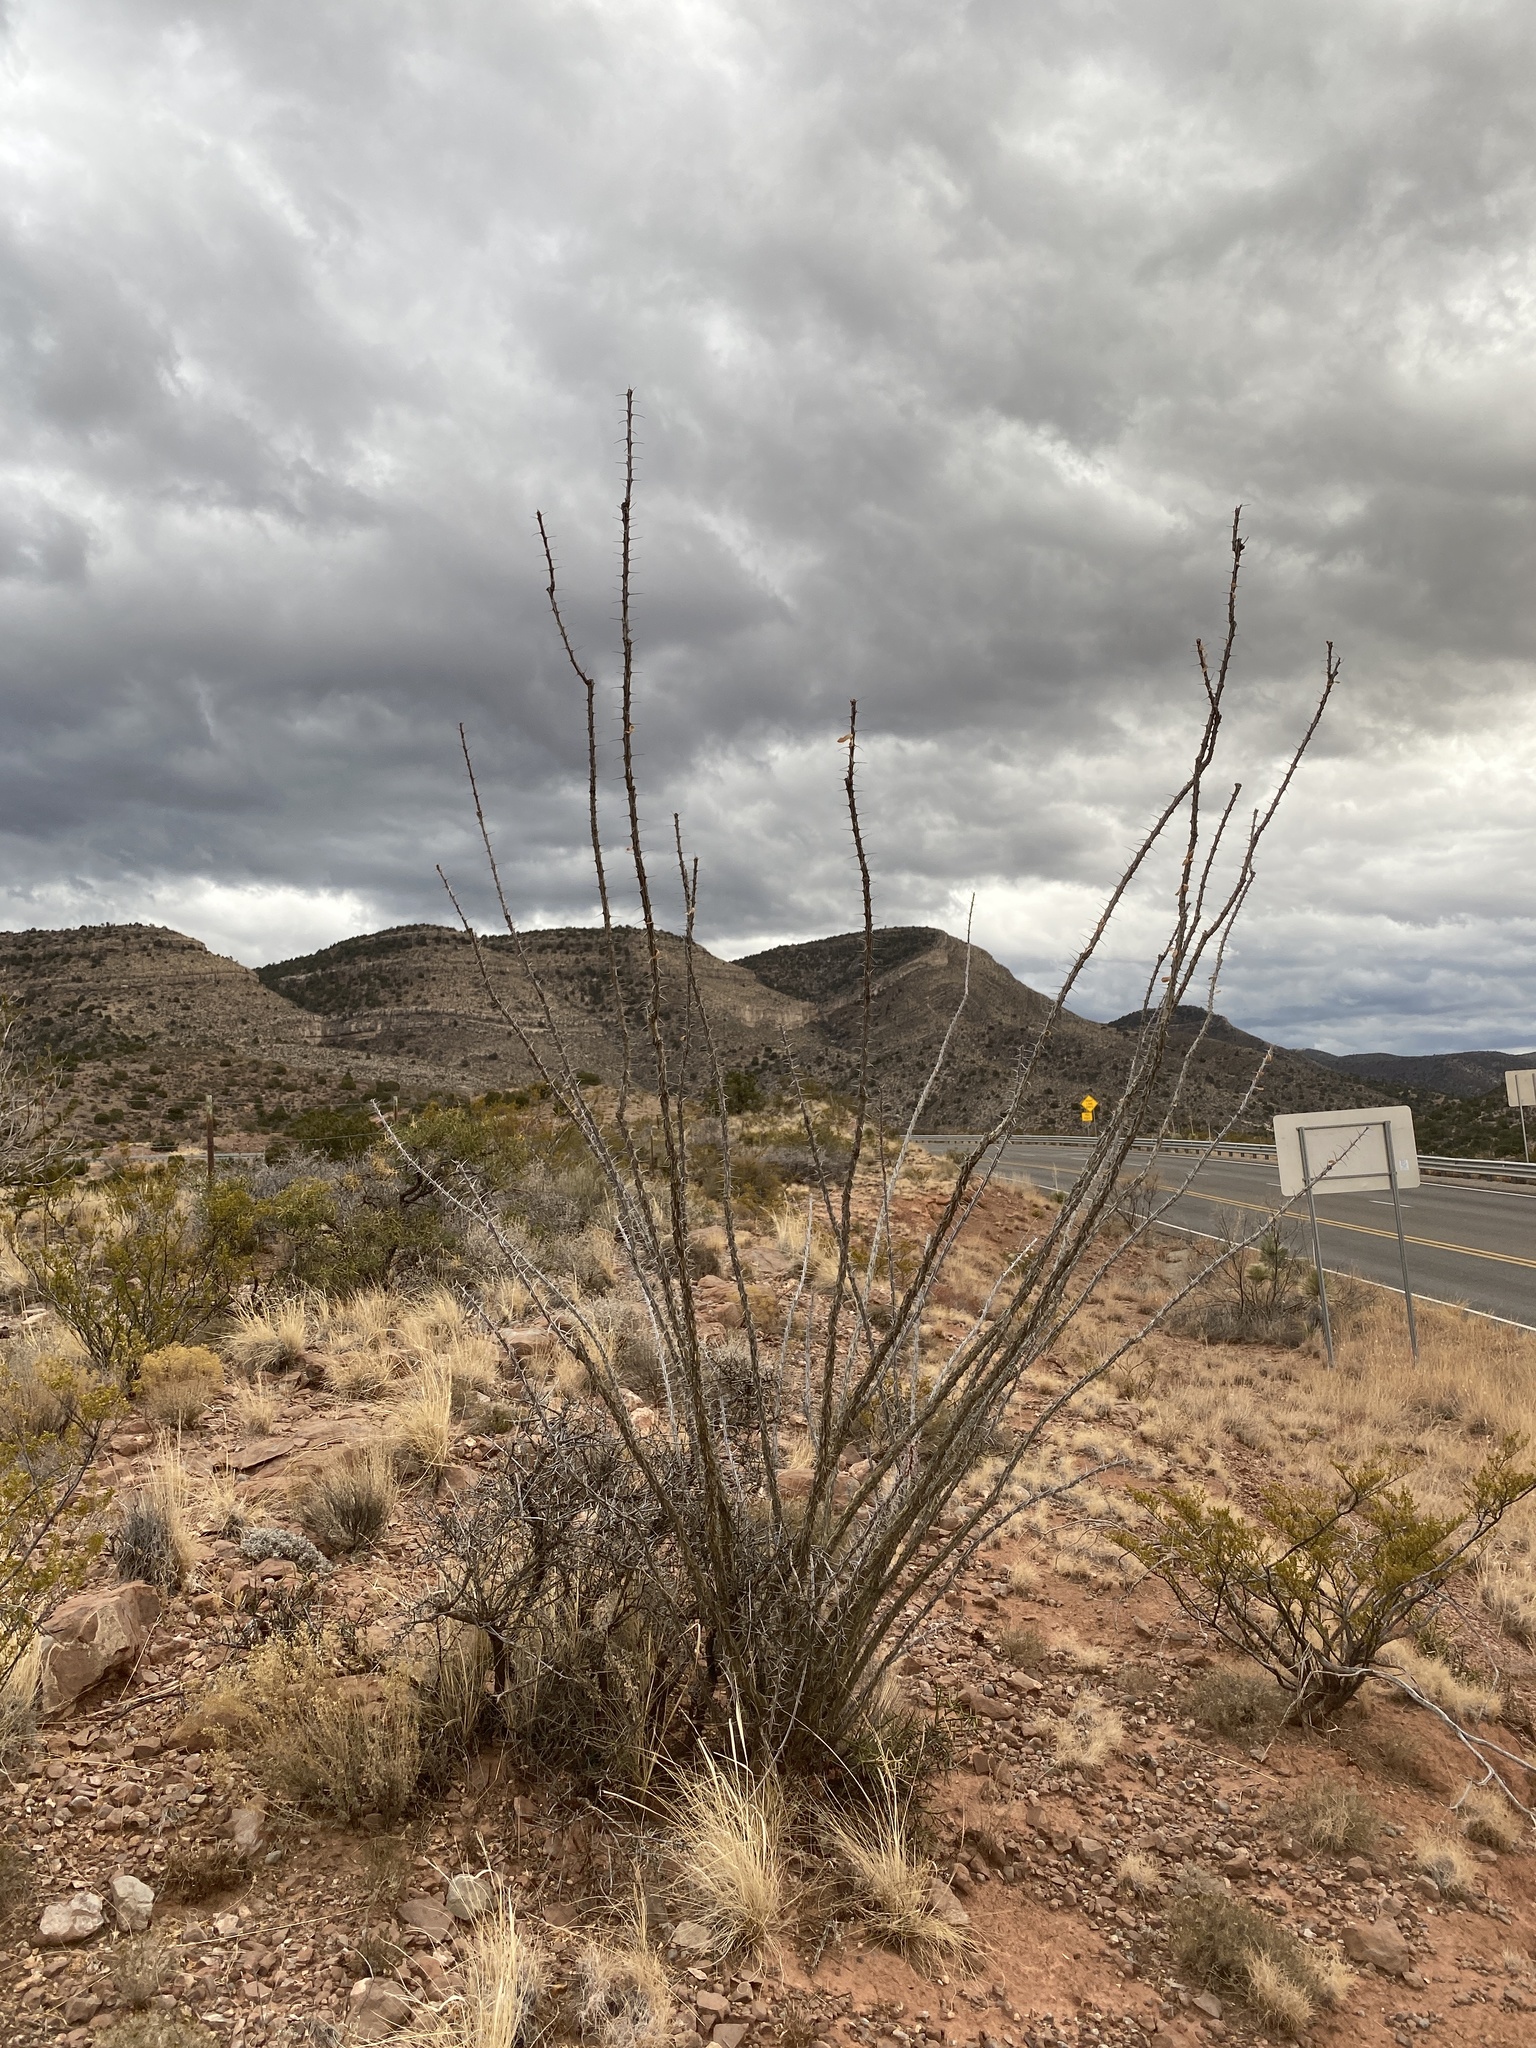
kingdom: Plantae
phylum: Tracheophyta
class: Magnoliopsida
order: Ericales
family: Fouquieriaceae
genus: Fouquieria
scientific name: Fouquieria splendens
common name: Vine-cactus
